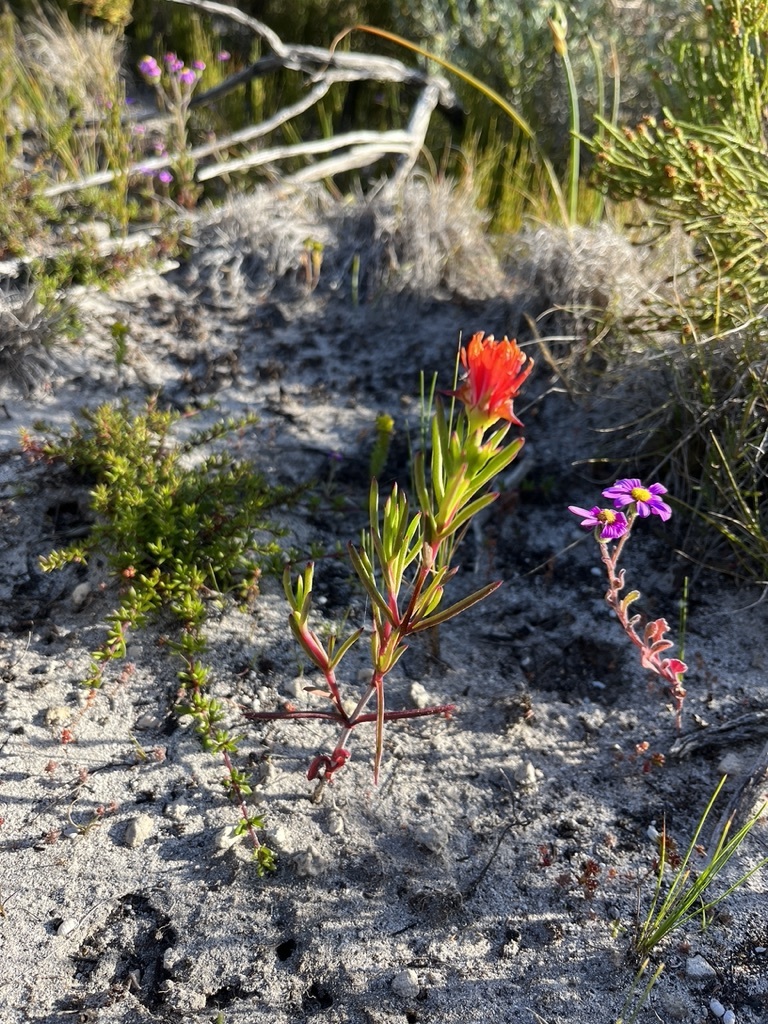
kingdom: Plantae
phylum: Tracheophyta
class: Magnoliopsida
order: Caryophyllales
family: Aizoaceae
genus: Lampranthus
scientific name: Lampranthus fergusoniae
